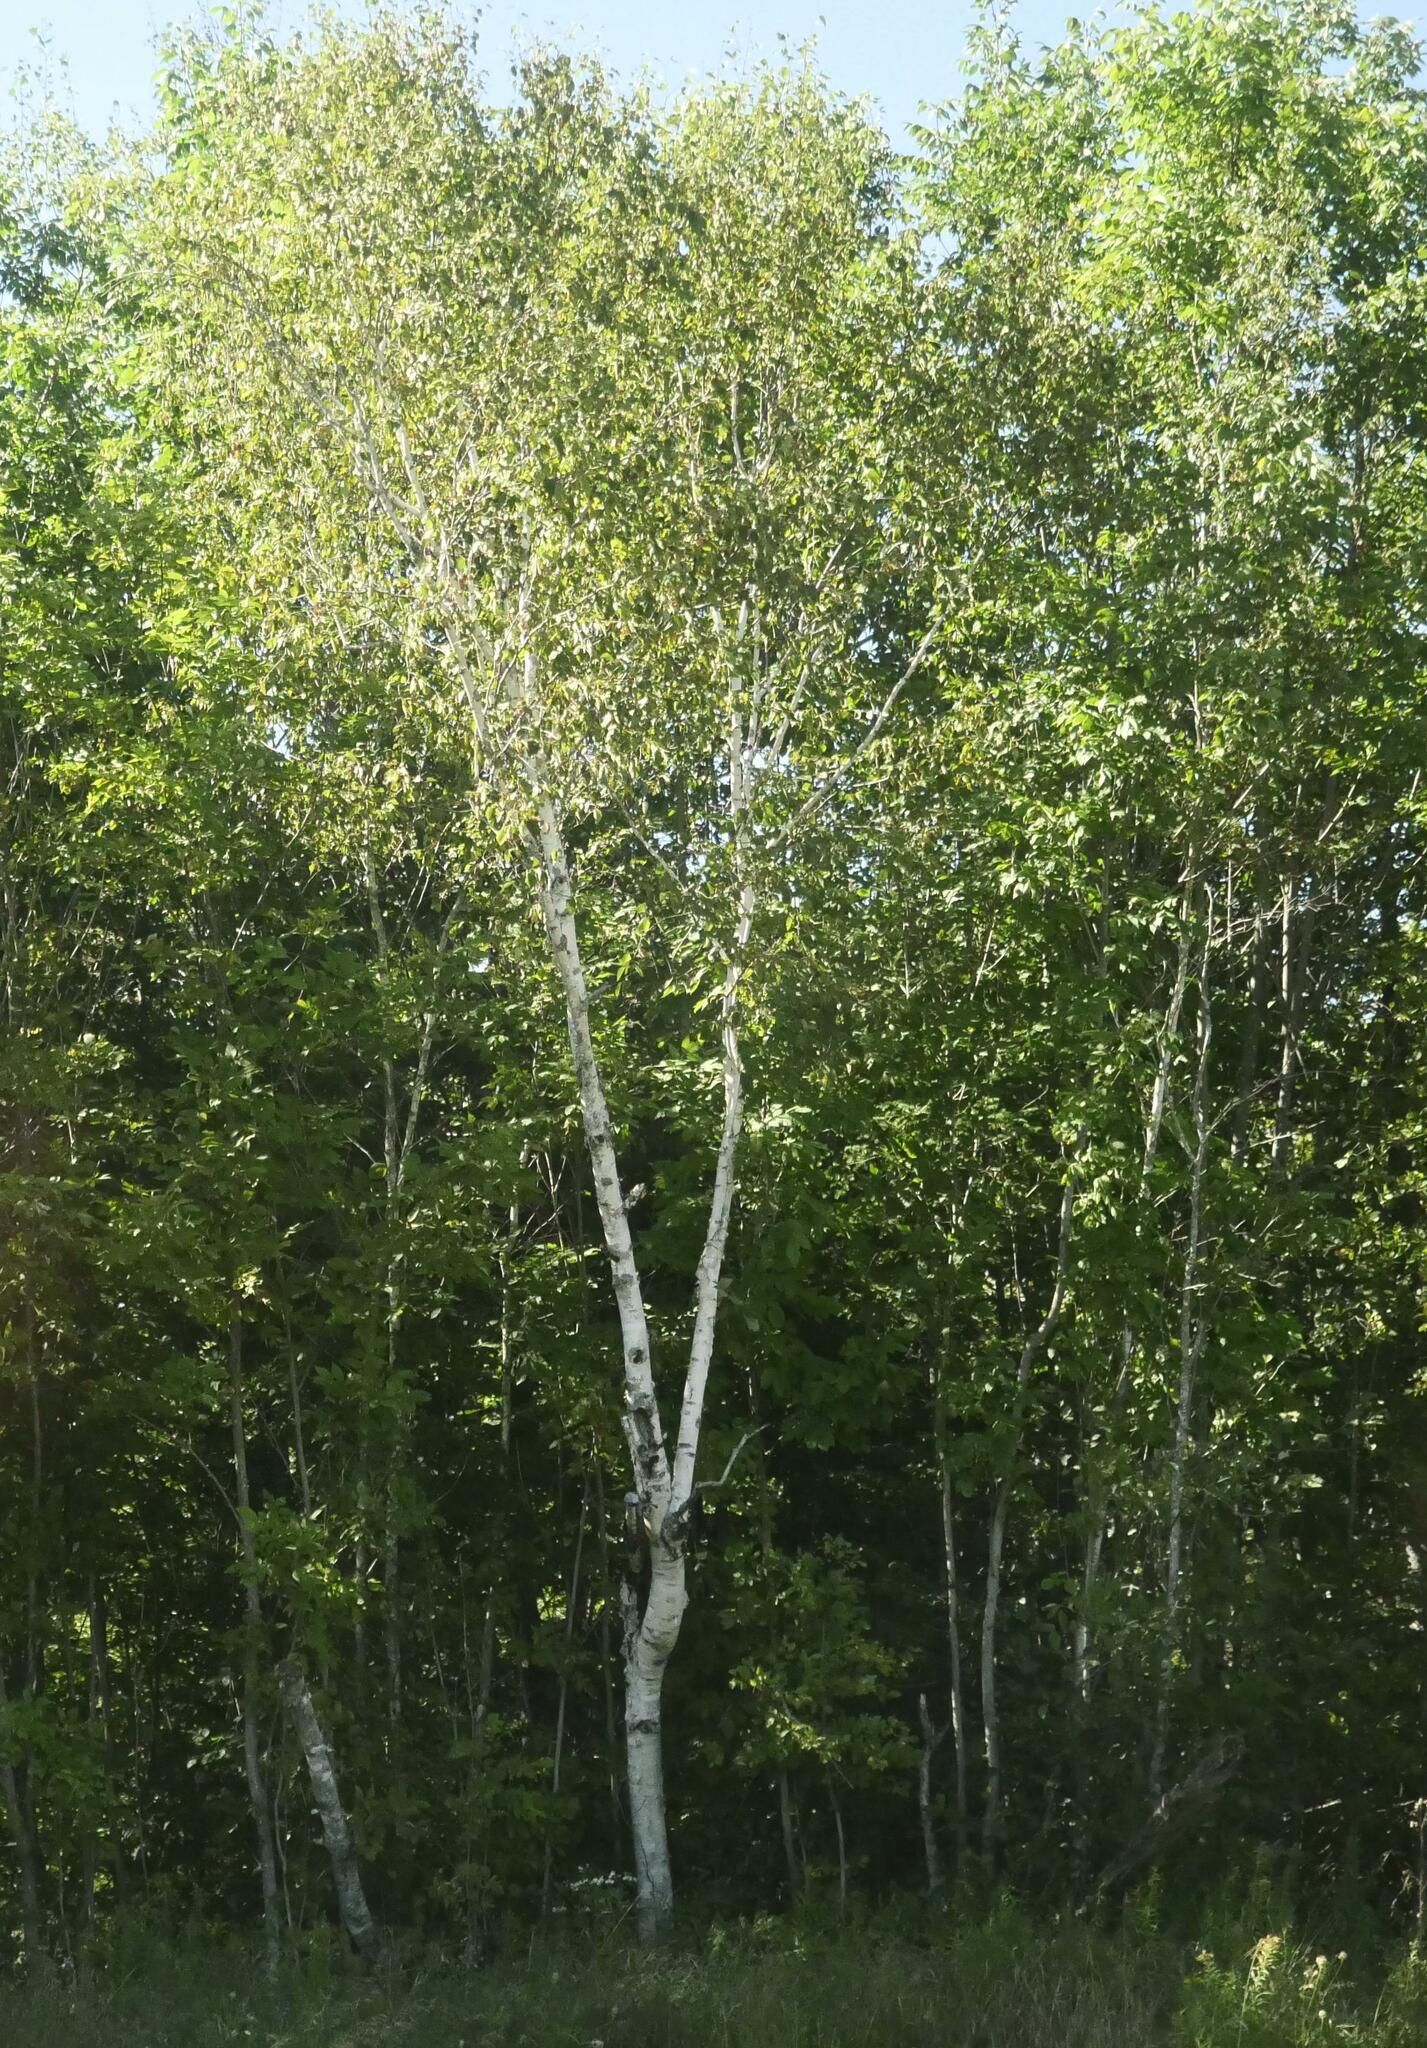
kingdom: Plantae
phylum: Tracheophyta
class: Magnoliopsida
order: Fagales
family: Betulaceae
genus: Betula
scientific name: Betula papyrifera
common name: Paper birch
